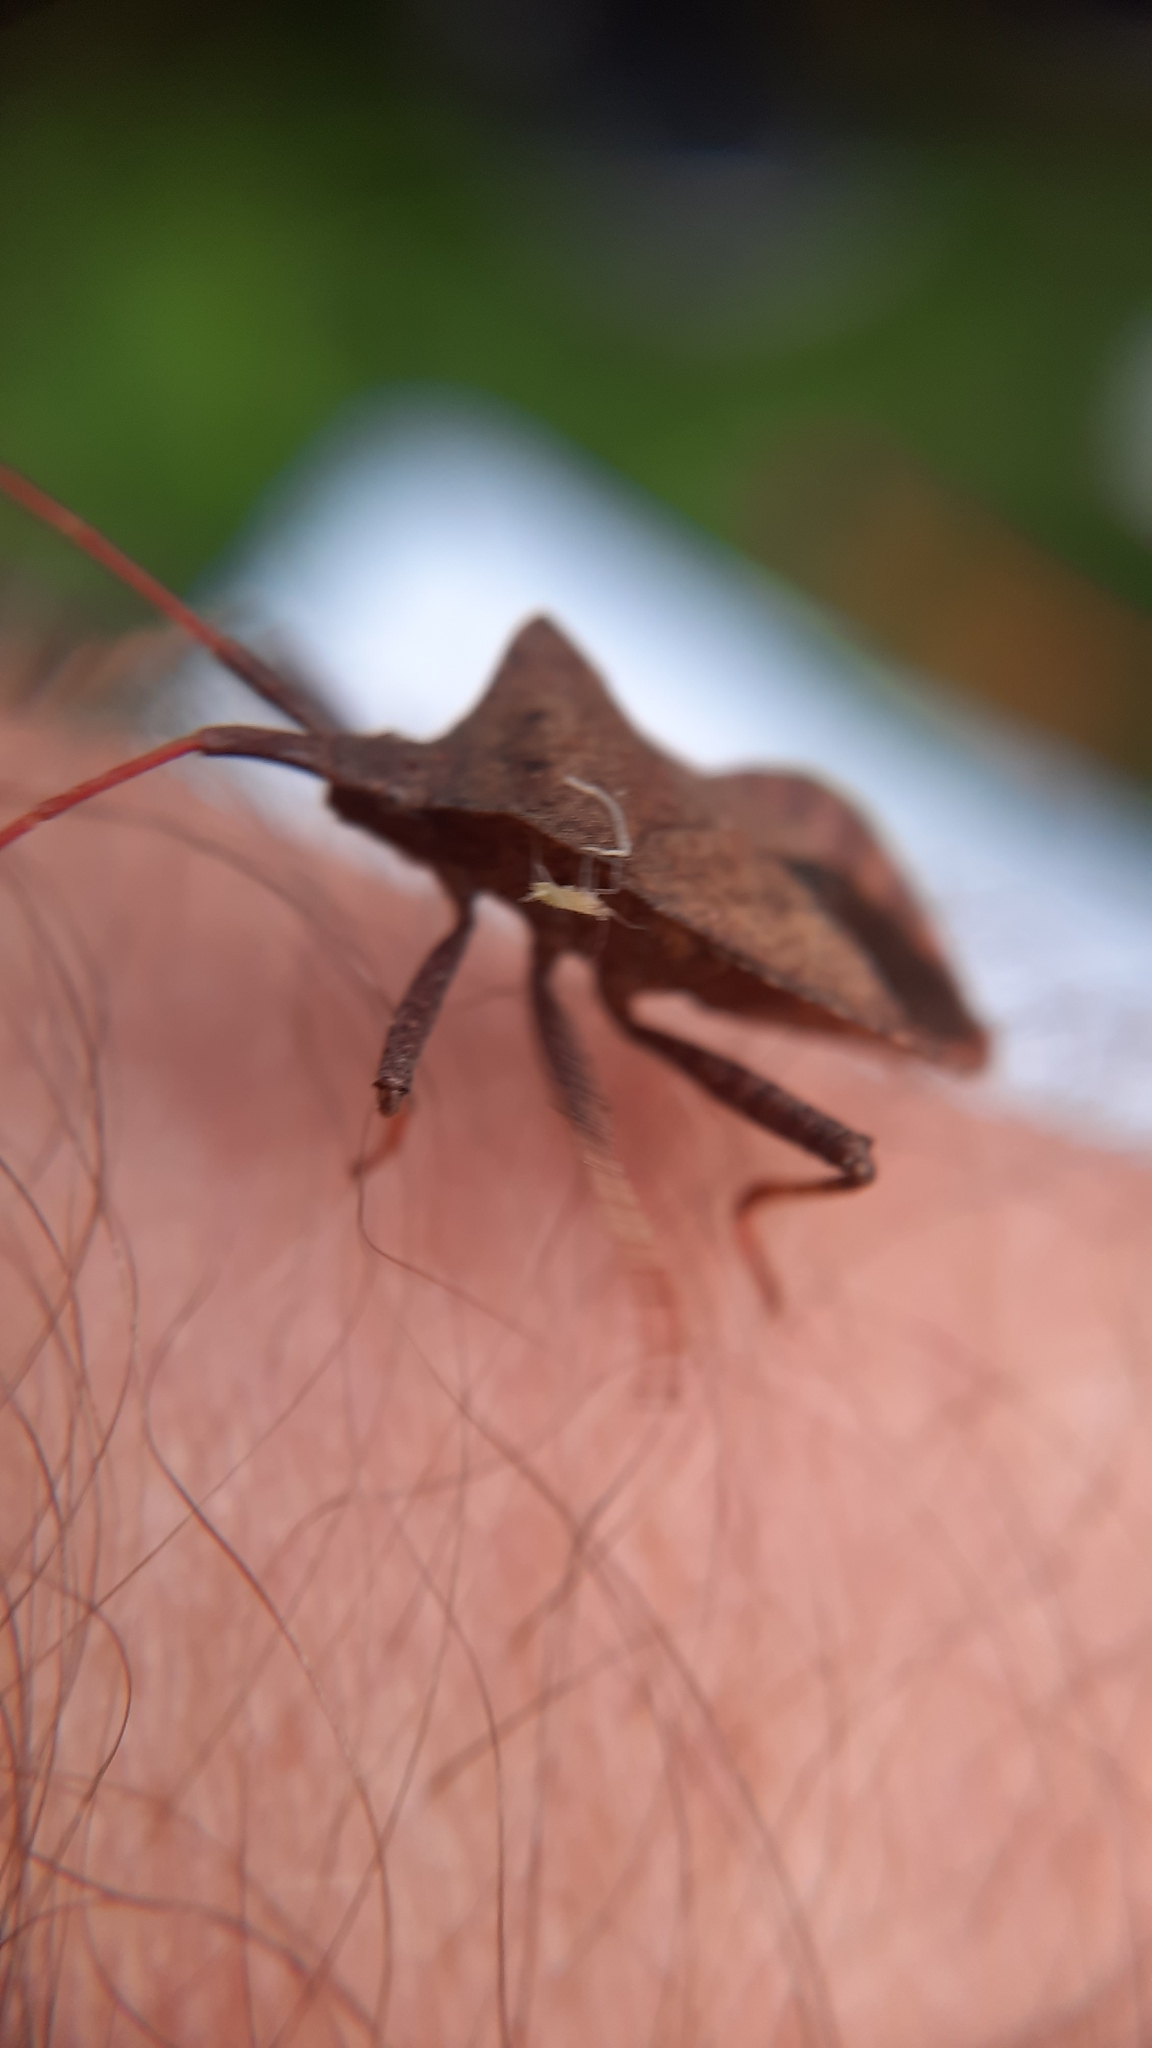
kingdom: Animalia
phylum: Arthropoda
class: Insecta
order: Hemiptera
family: Coreidae
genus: Coreus
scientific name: Coreus marginatus
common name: Dock bug
